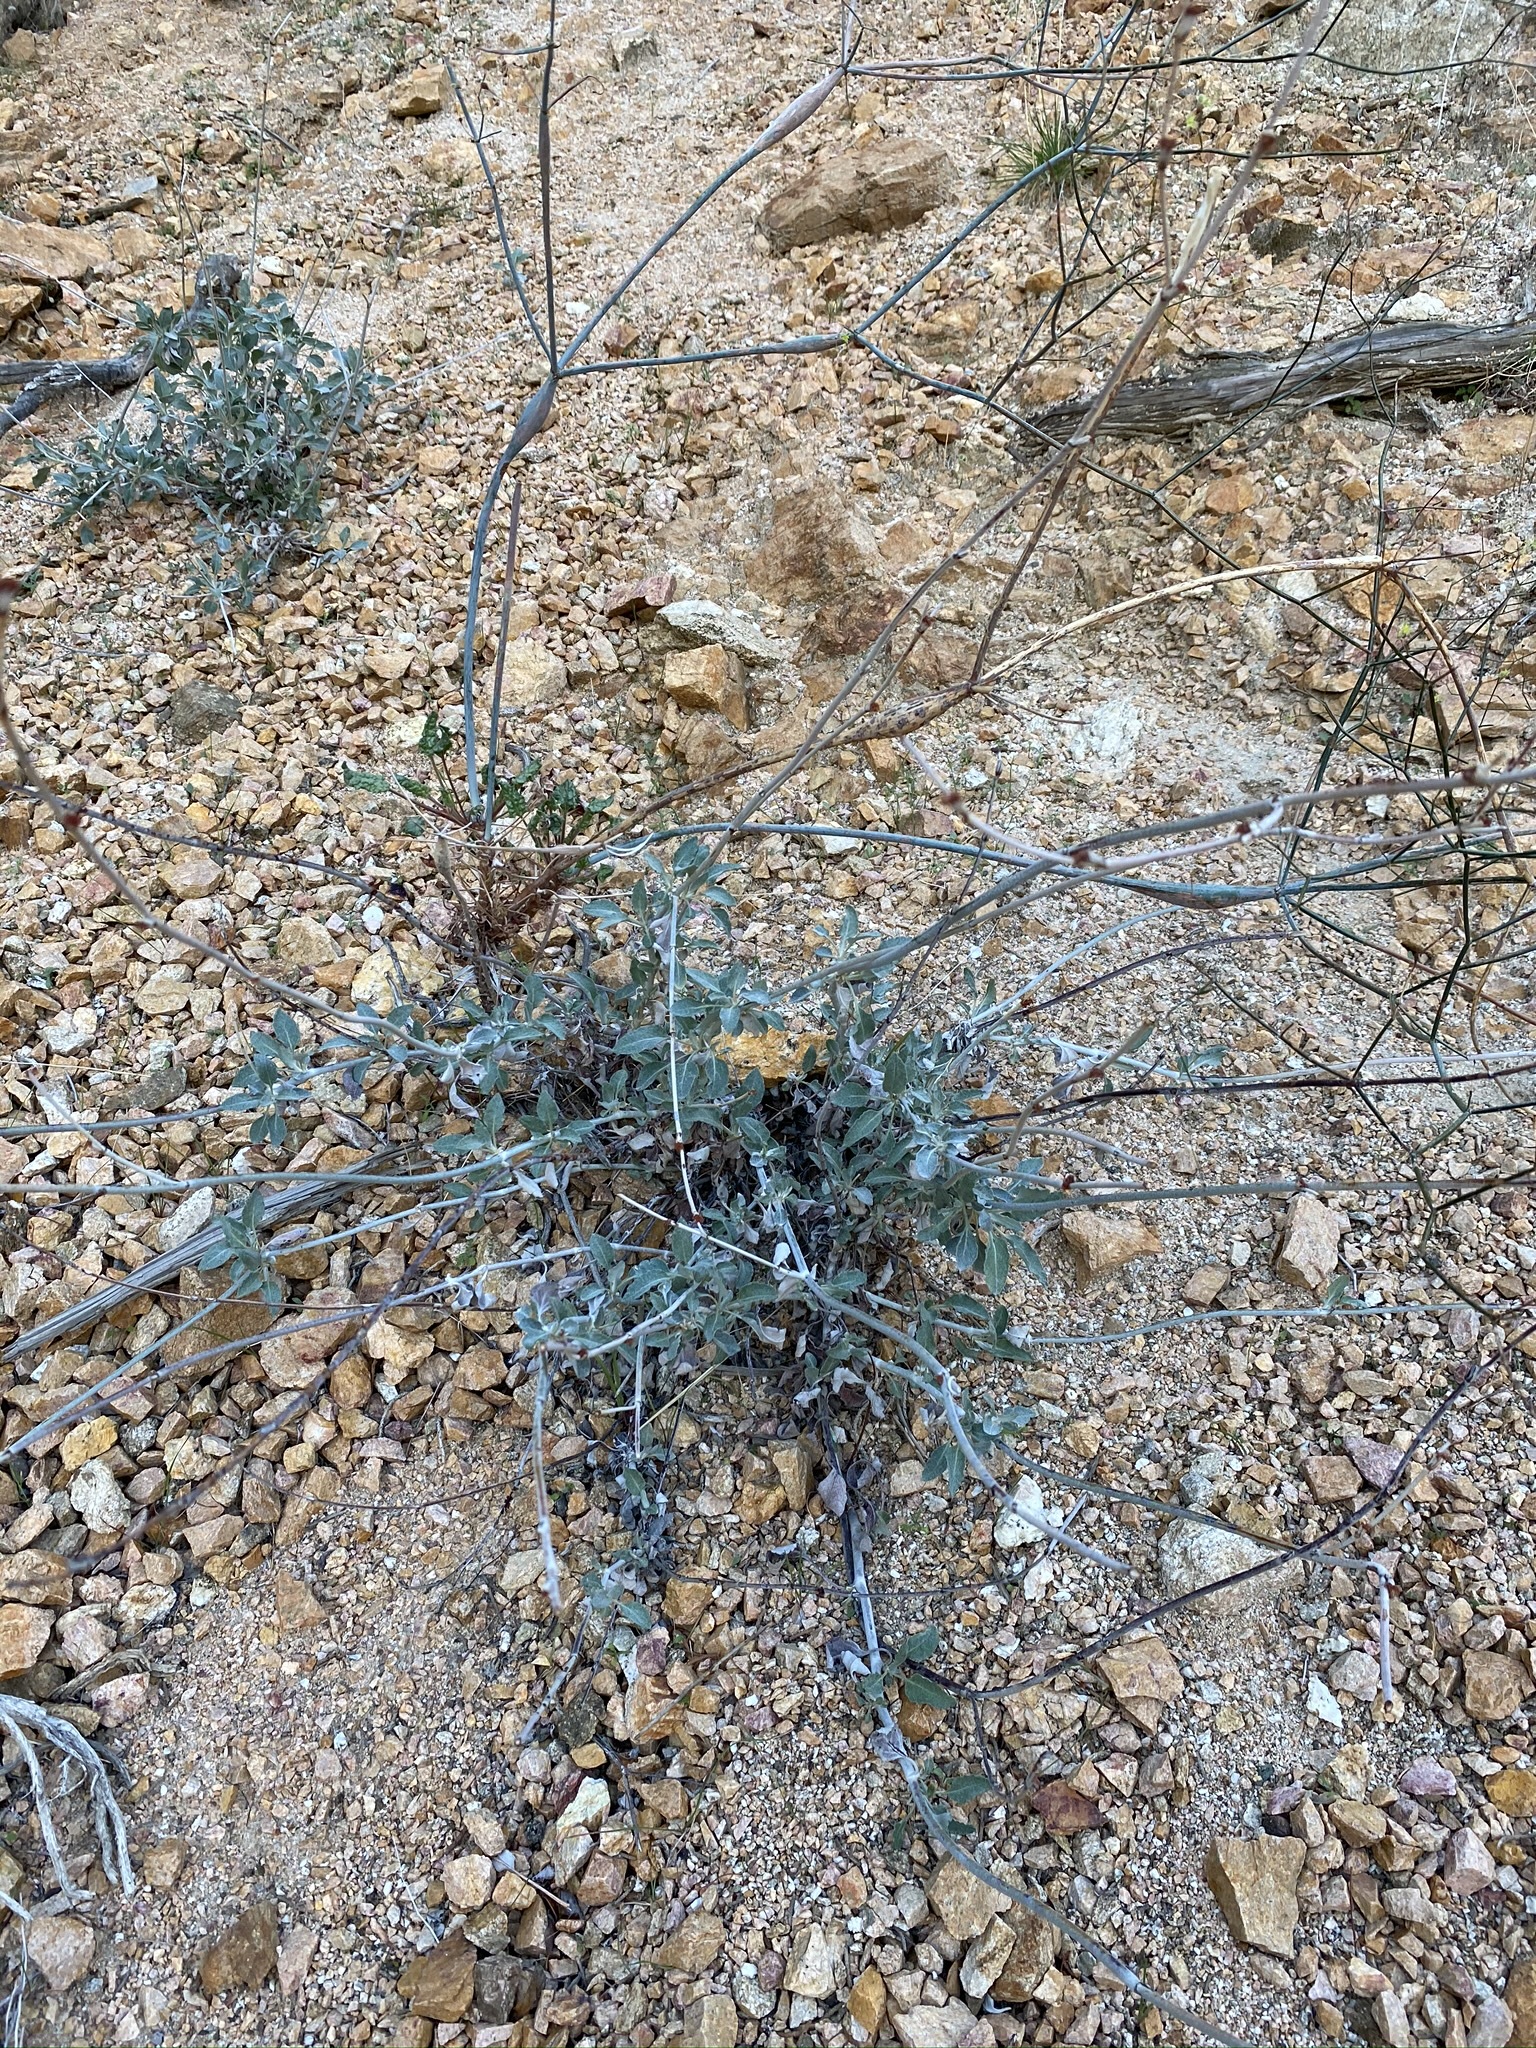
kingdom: Plantae
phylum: Tracheophyta
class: Magnoliopsida
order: Caryophyllales
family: Polygonaceae
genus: Eriogonum
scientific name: Eriogonum elongatum
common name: Long-stem wild buckwheat
